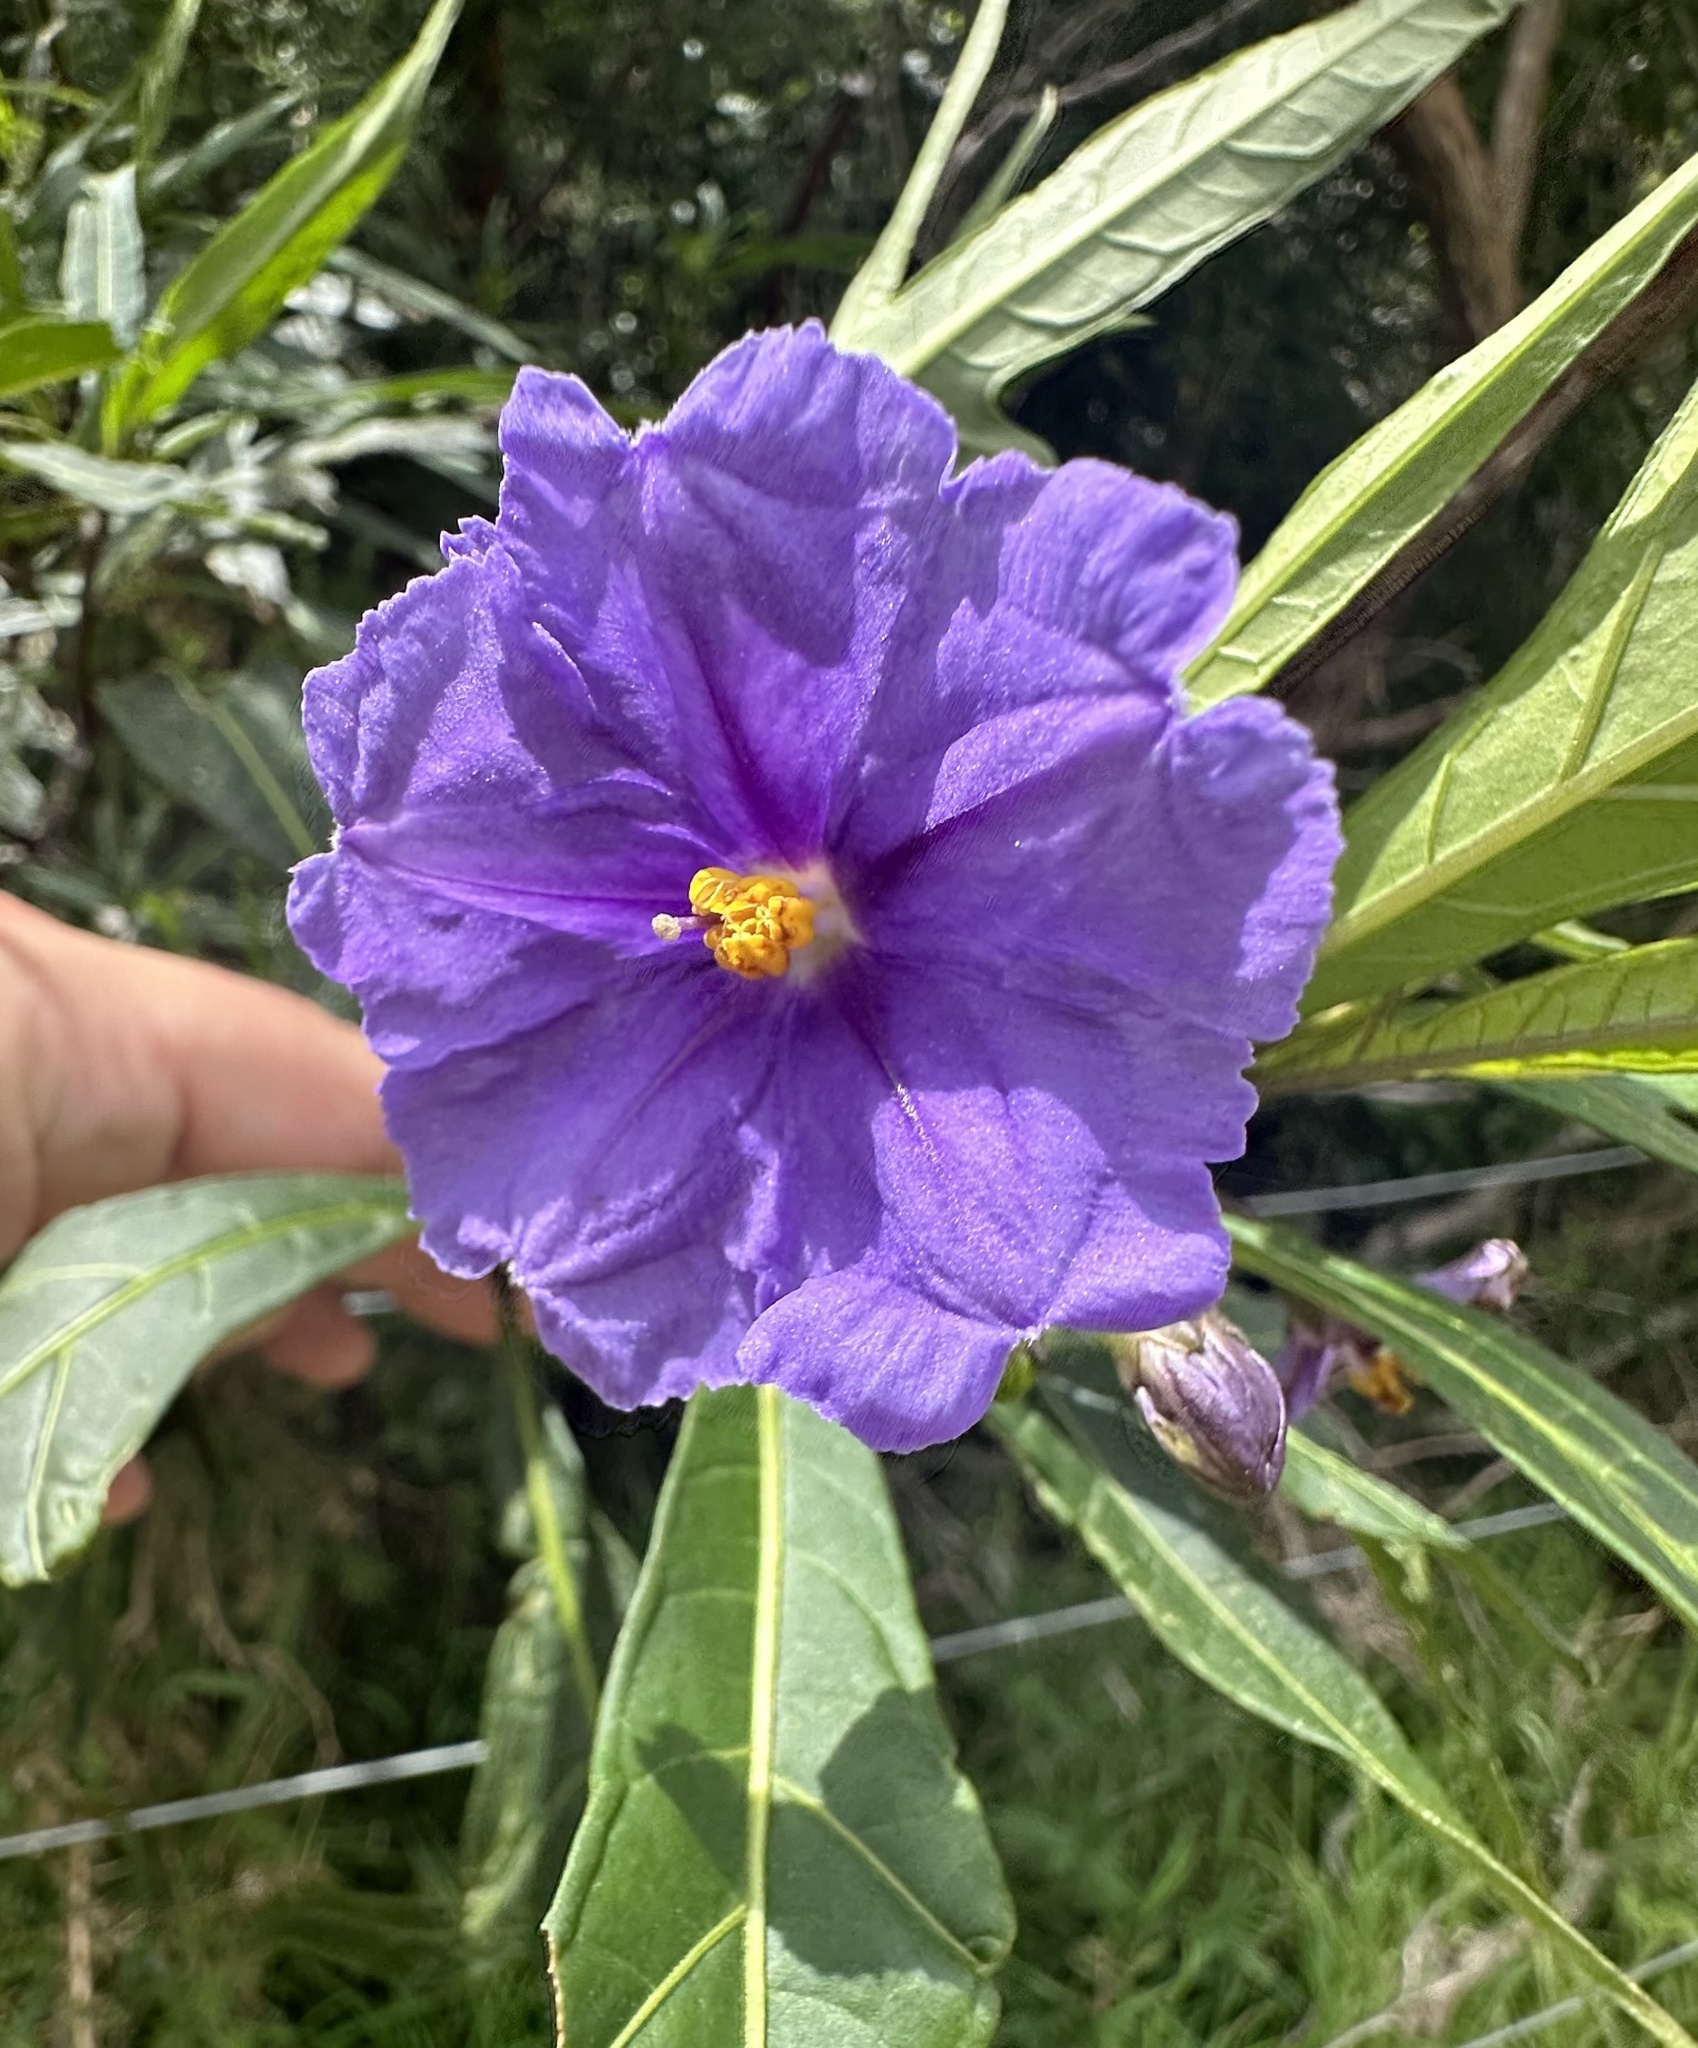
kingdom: Plantae
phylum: Tracheophyta
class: Magnoliopsida
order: Solanales
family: Solanaceae
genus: Solanum
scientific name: Solanum laciniatum
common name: Kangaroo-apple
